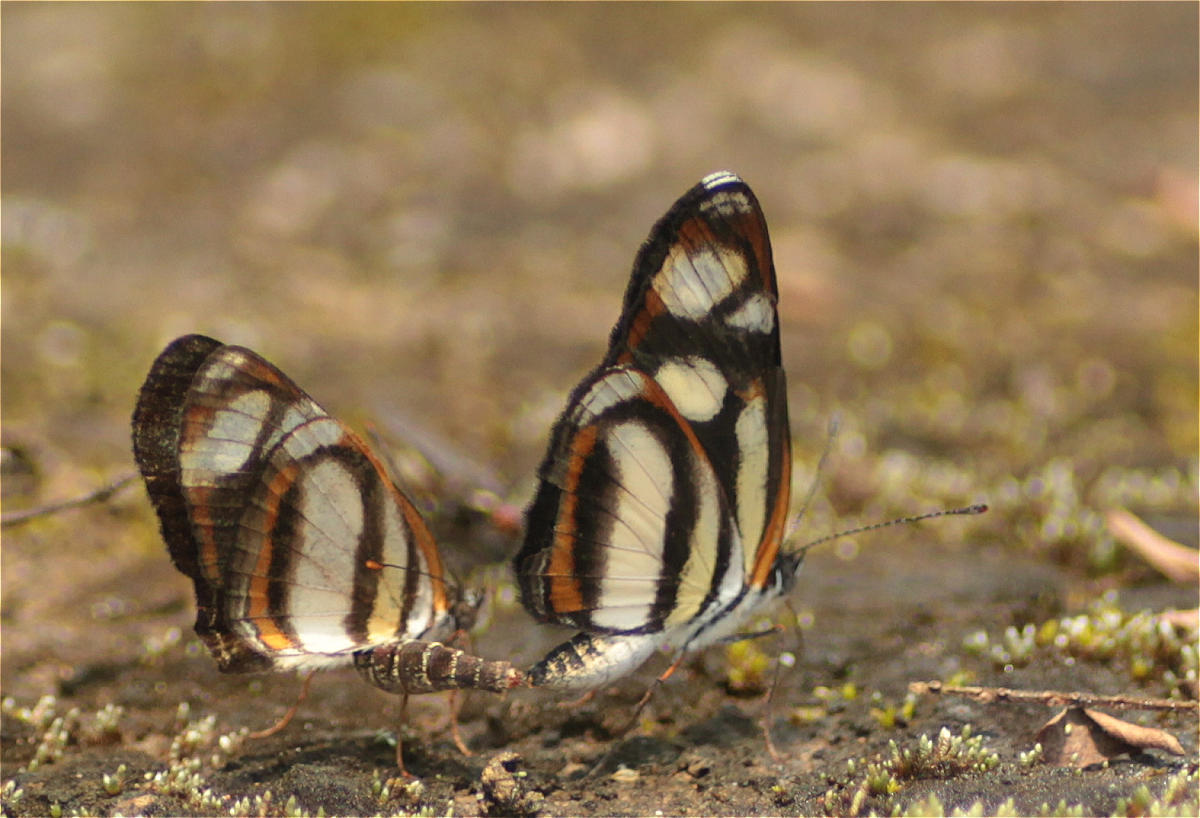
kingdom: Animalia
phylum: Arthropoda
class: Insecta
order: Lepidoptera
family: Nymphalidae
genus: Eresia
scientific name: Eresia clio
